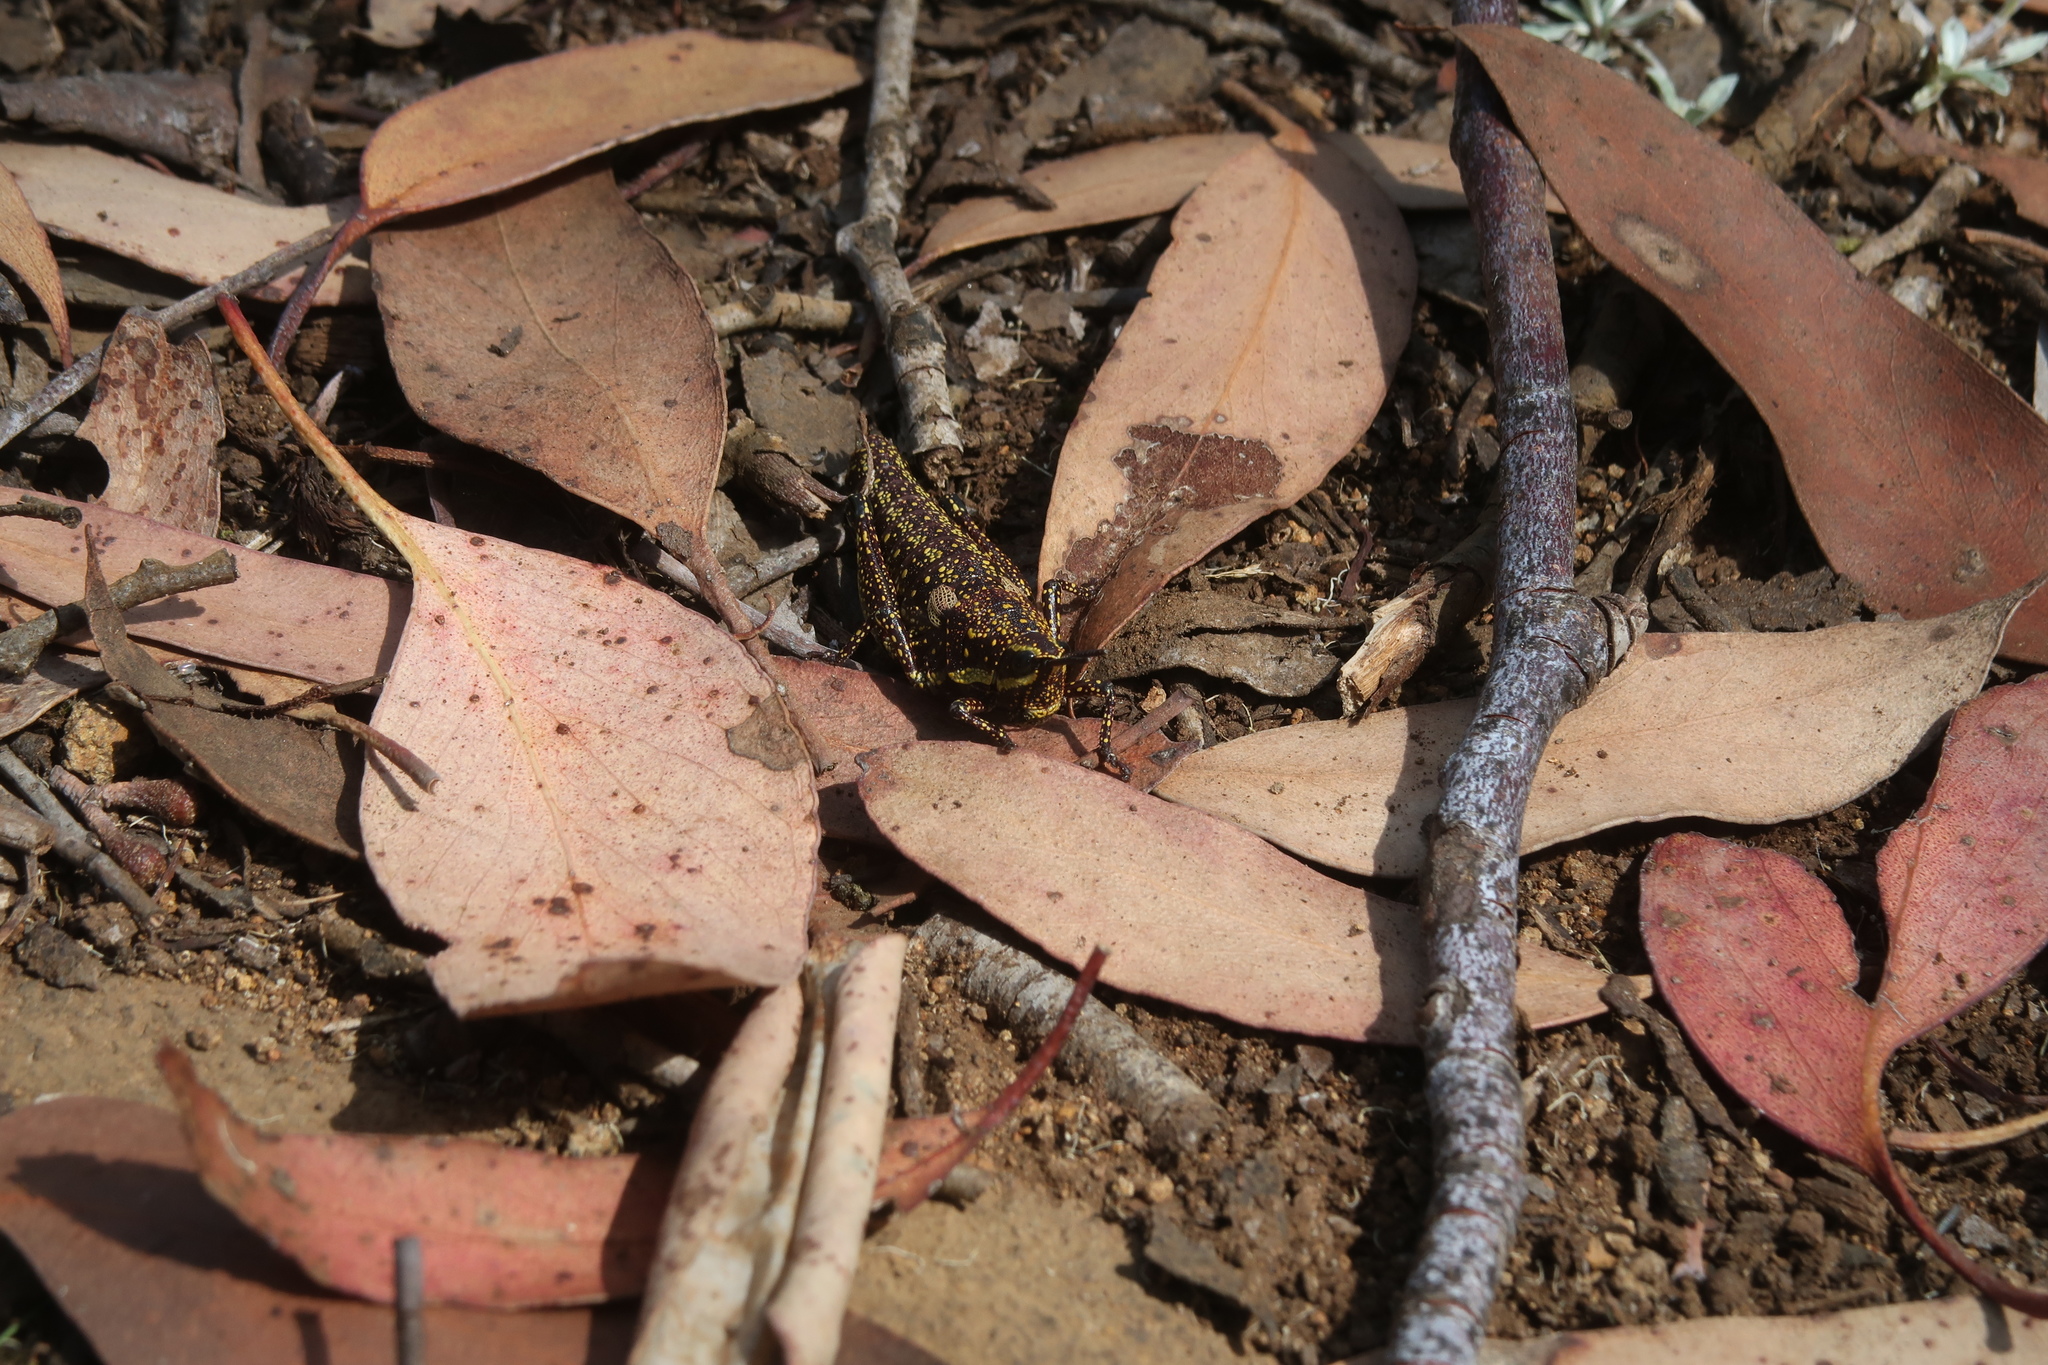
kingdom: Animalia
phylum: Arthropoda
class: Insecta
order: Orthoptera
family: Pyrgomorphidae
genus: Monistria
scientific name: Monistria concinna
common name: Southern pyrgomorph
